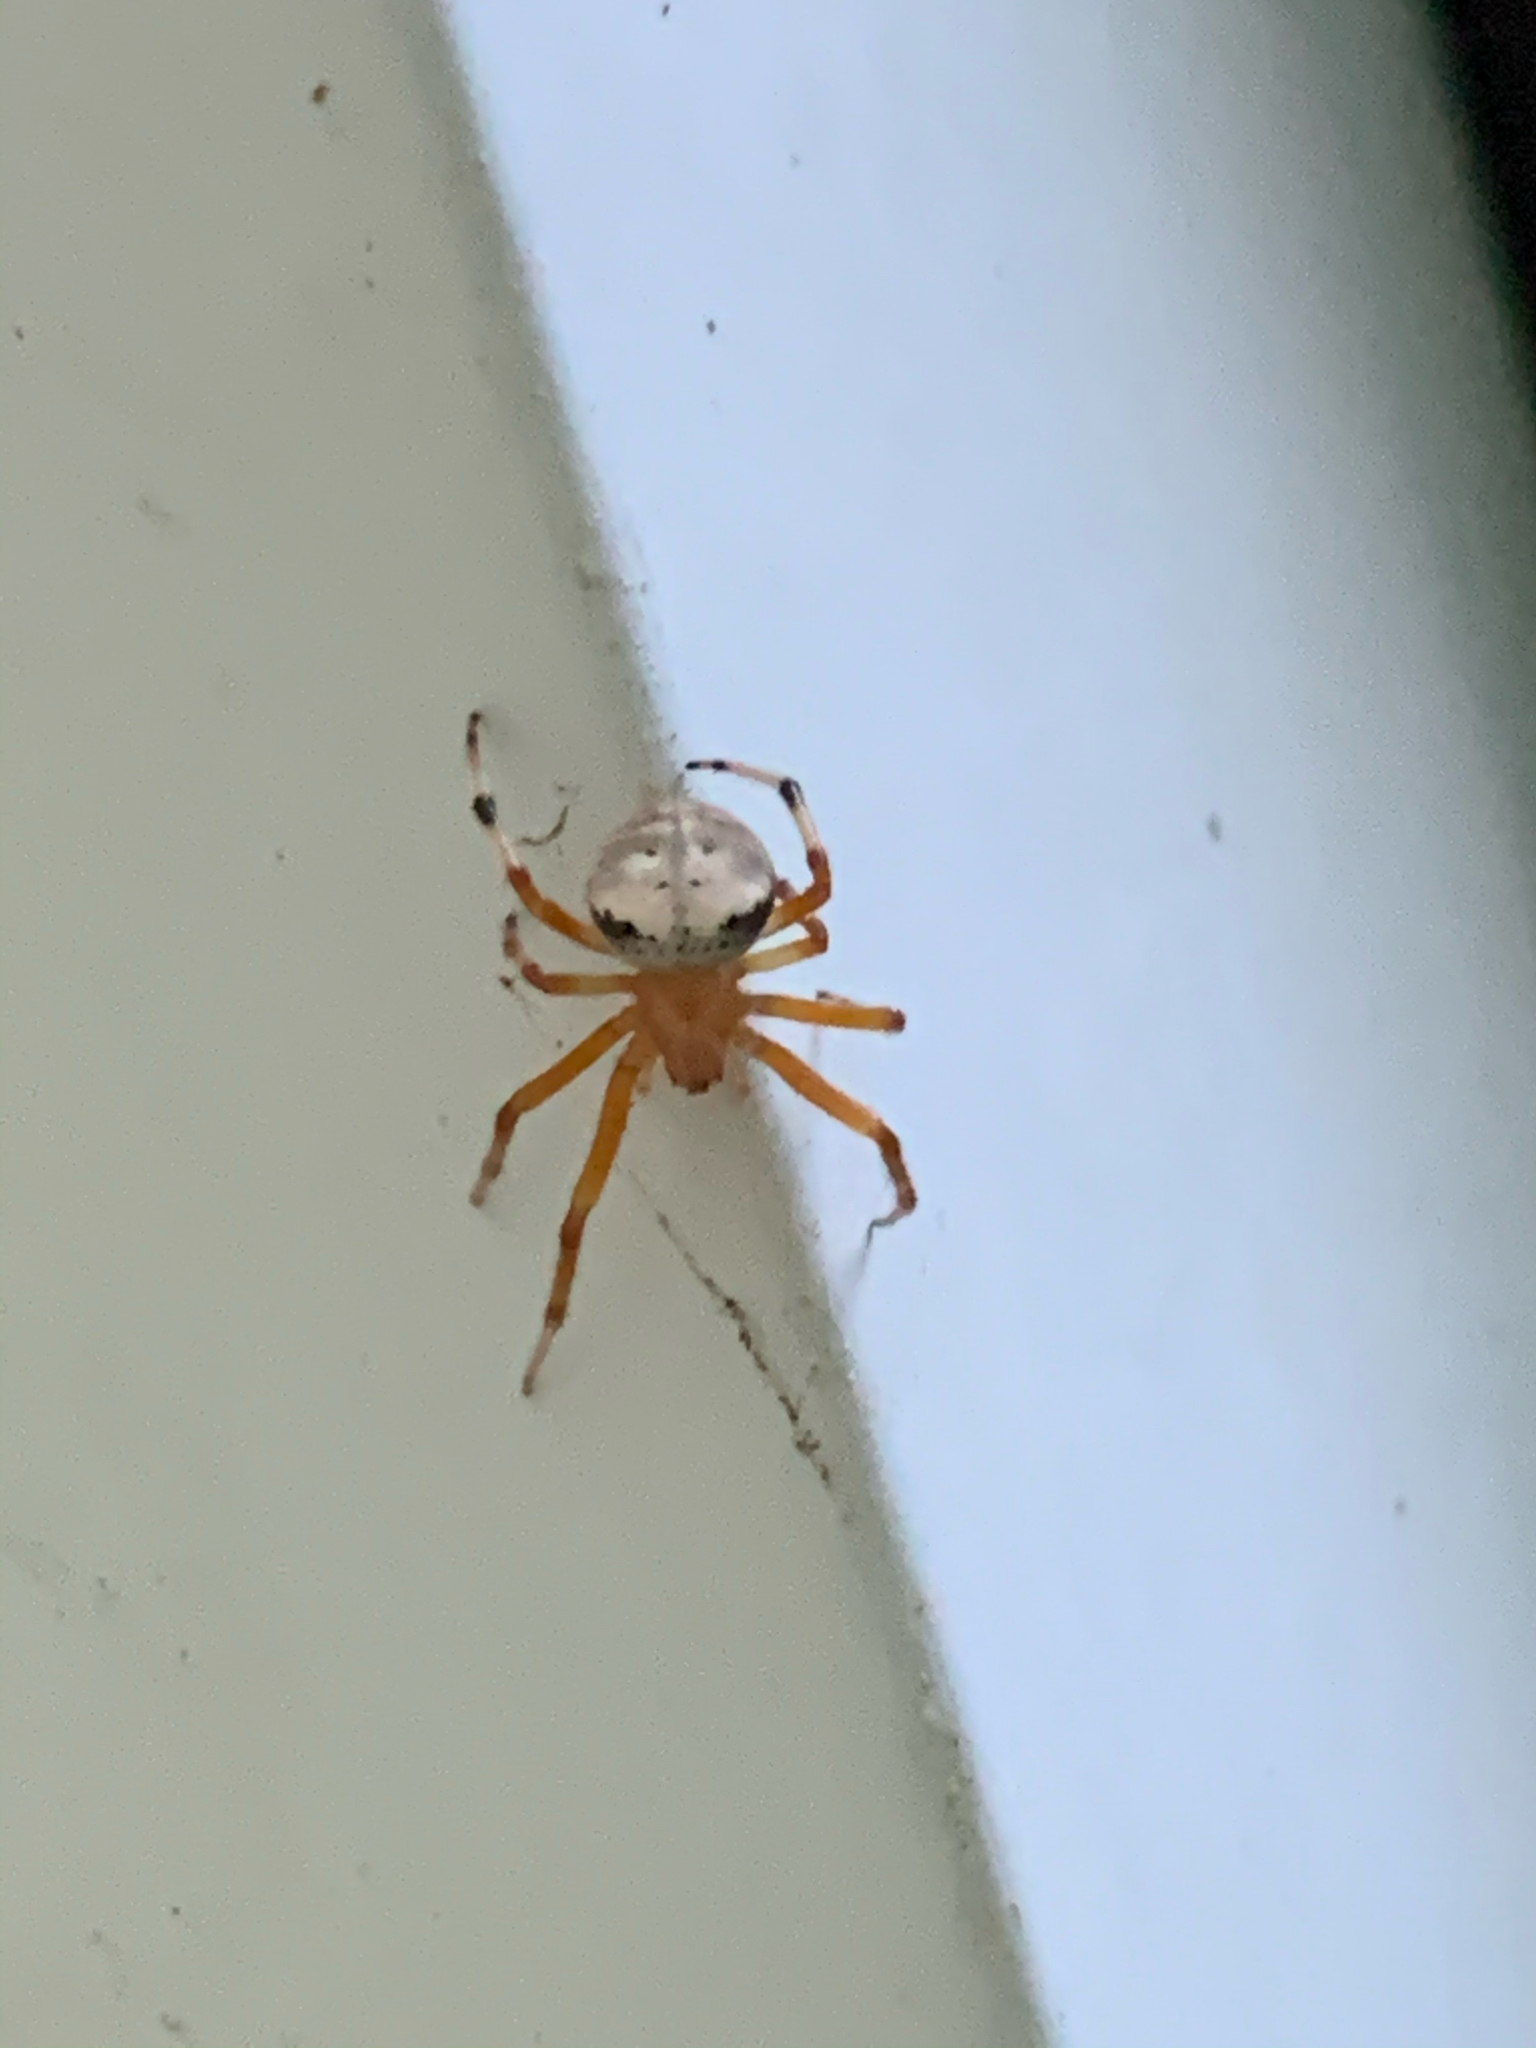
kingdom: Animalia
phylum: Arthropoda
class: Arachnida
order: Araneae
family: Araneidae
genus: Araneus
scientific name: Araneus thaddeus
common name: Lattice orbweaver
